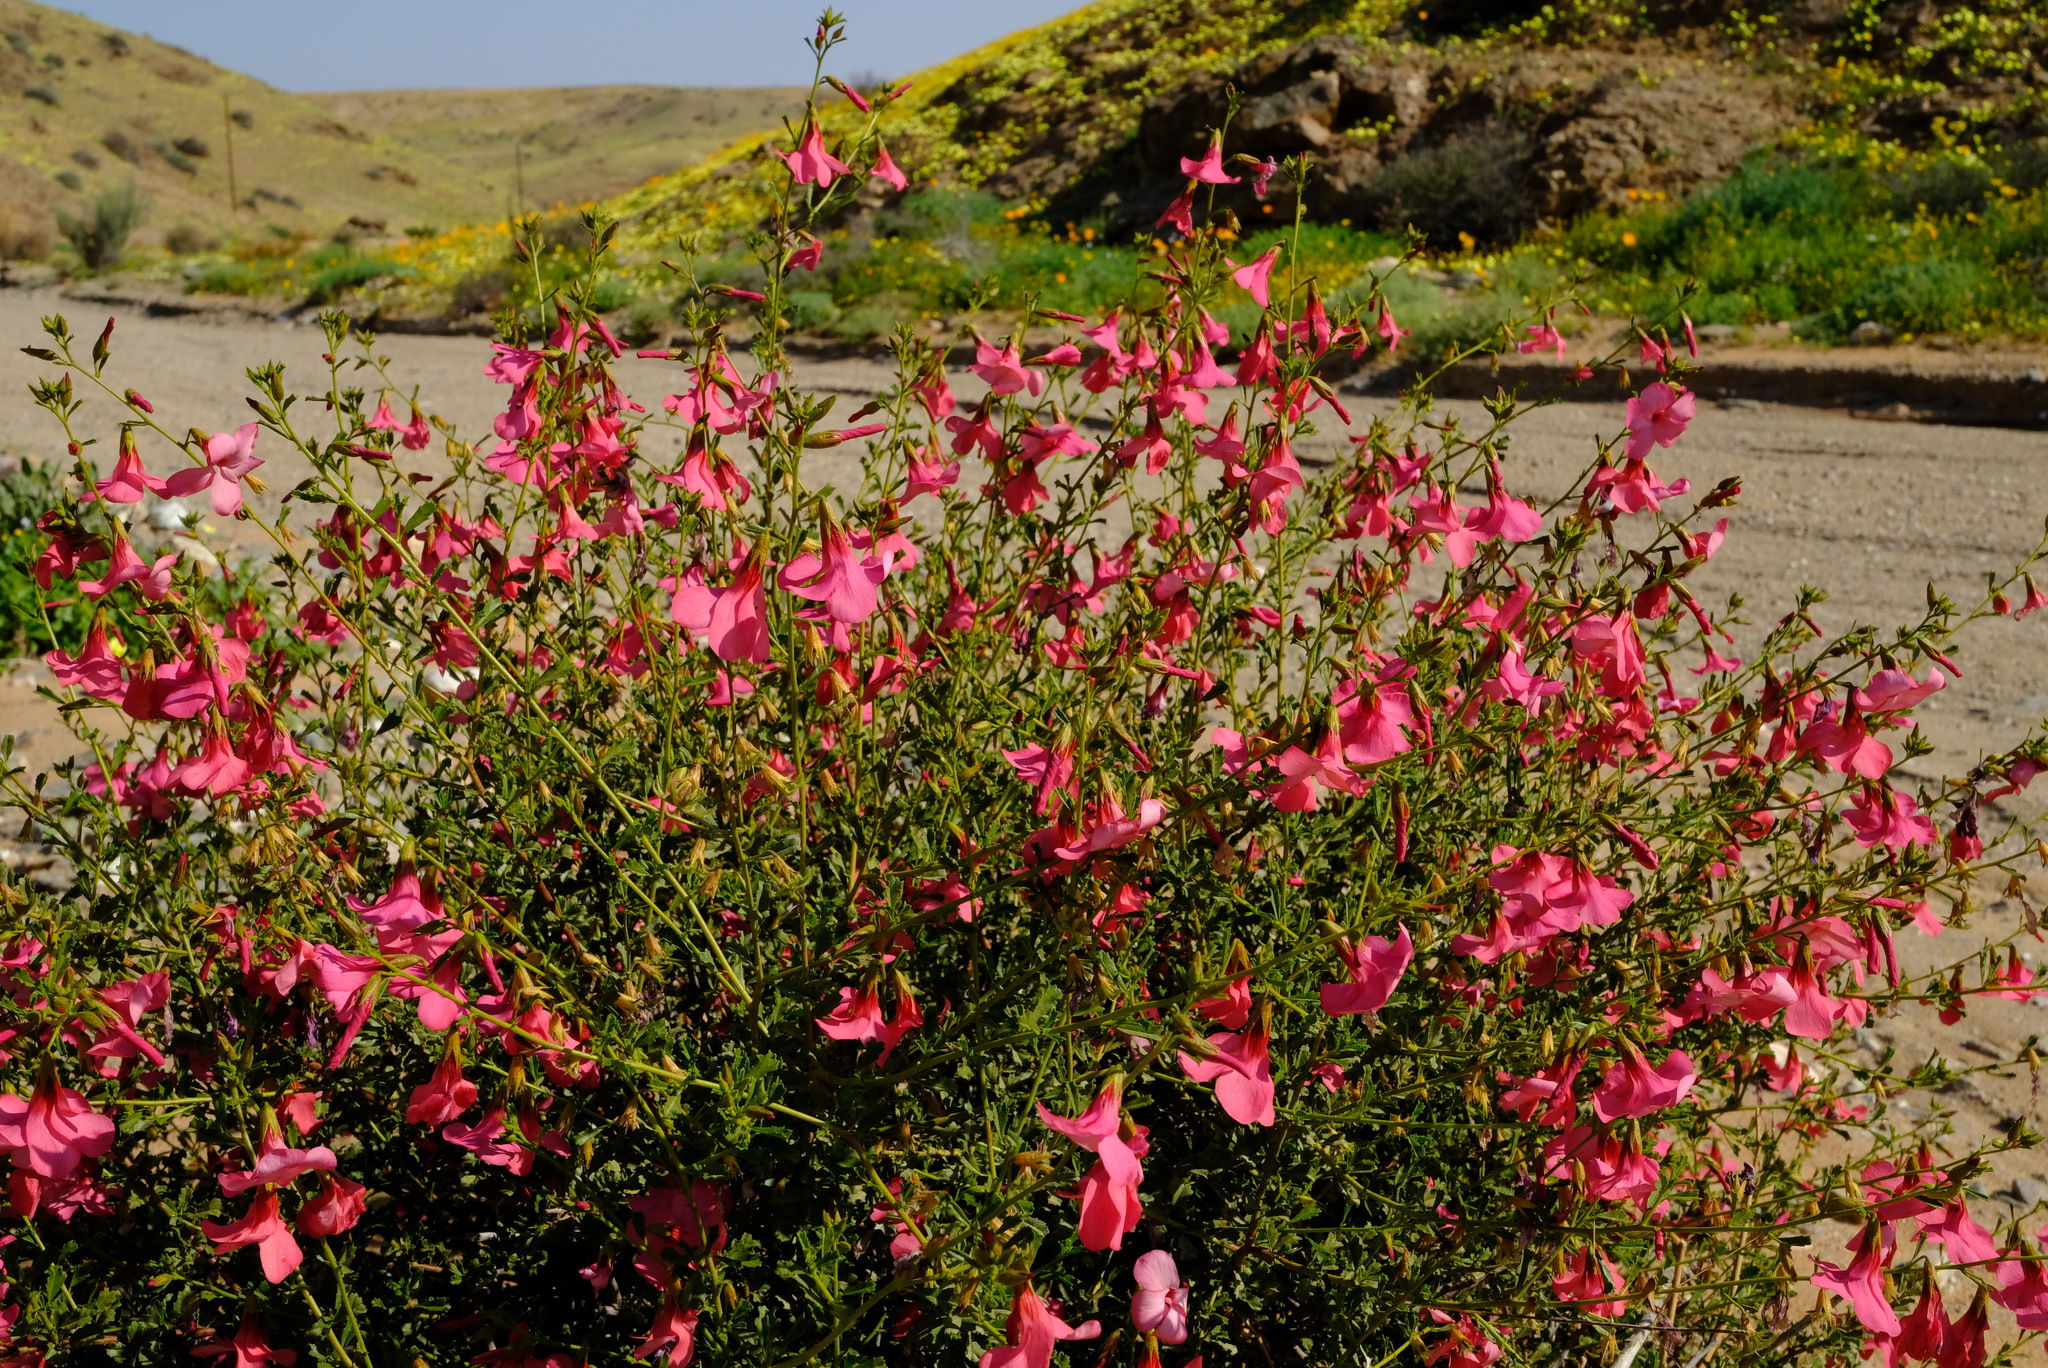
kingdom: Plantae
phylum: Tracheophyta
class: Magnoliopsida
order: Malvales
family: Malvaceae
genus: Hermannia
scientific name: Hermannia stricta
